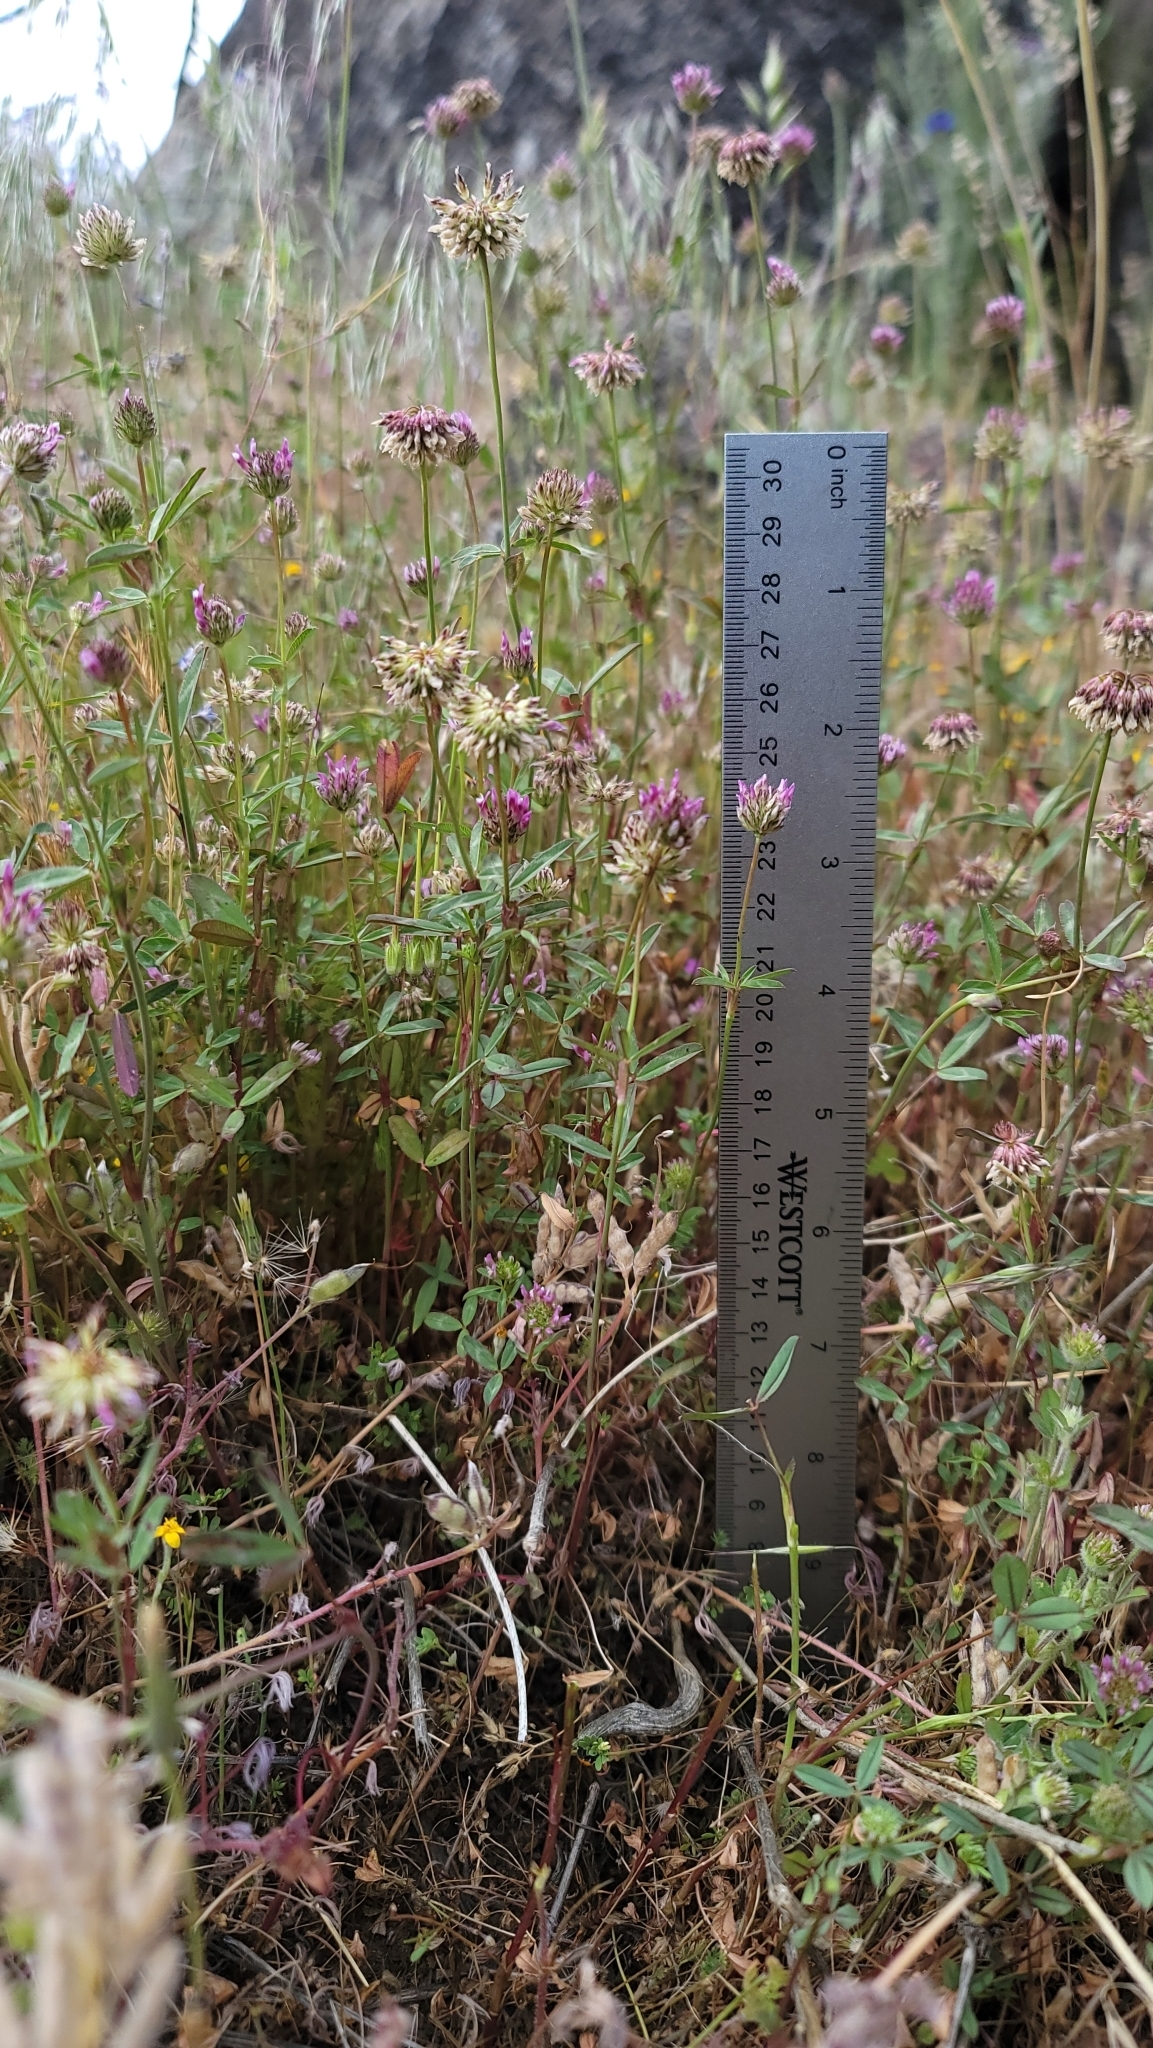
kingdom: Plantae
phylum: Tracheophyta
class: Magnoliopsida
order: Fabales
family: Fabaceae
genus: Trifolium
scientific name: Trifolium ciliolatum
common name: Foothill clover
